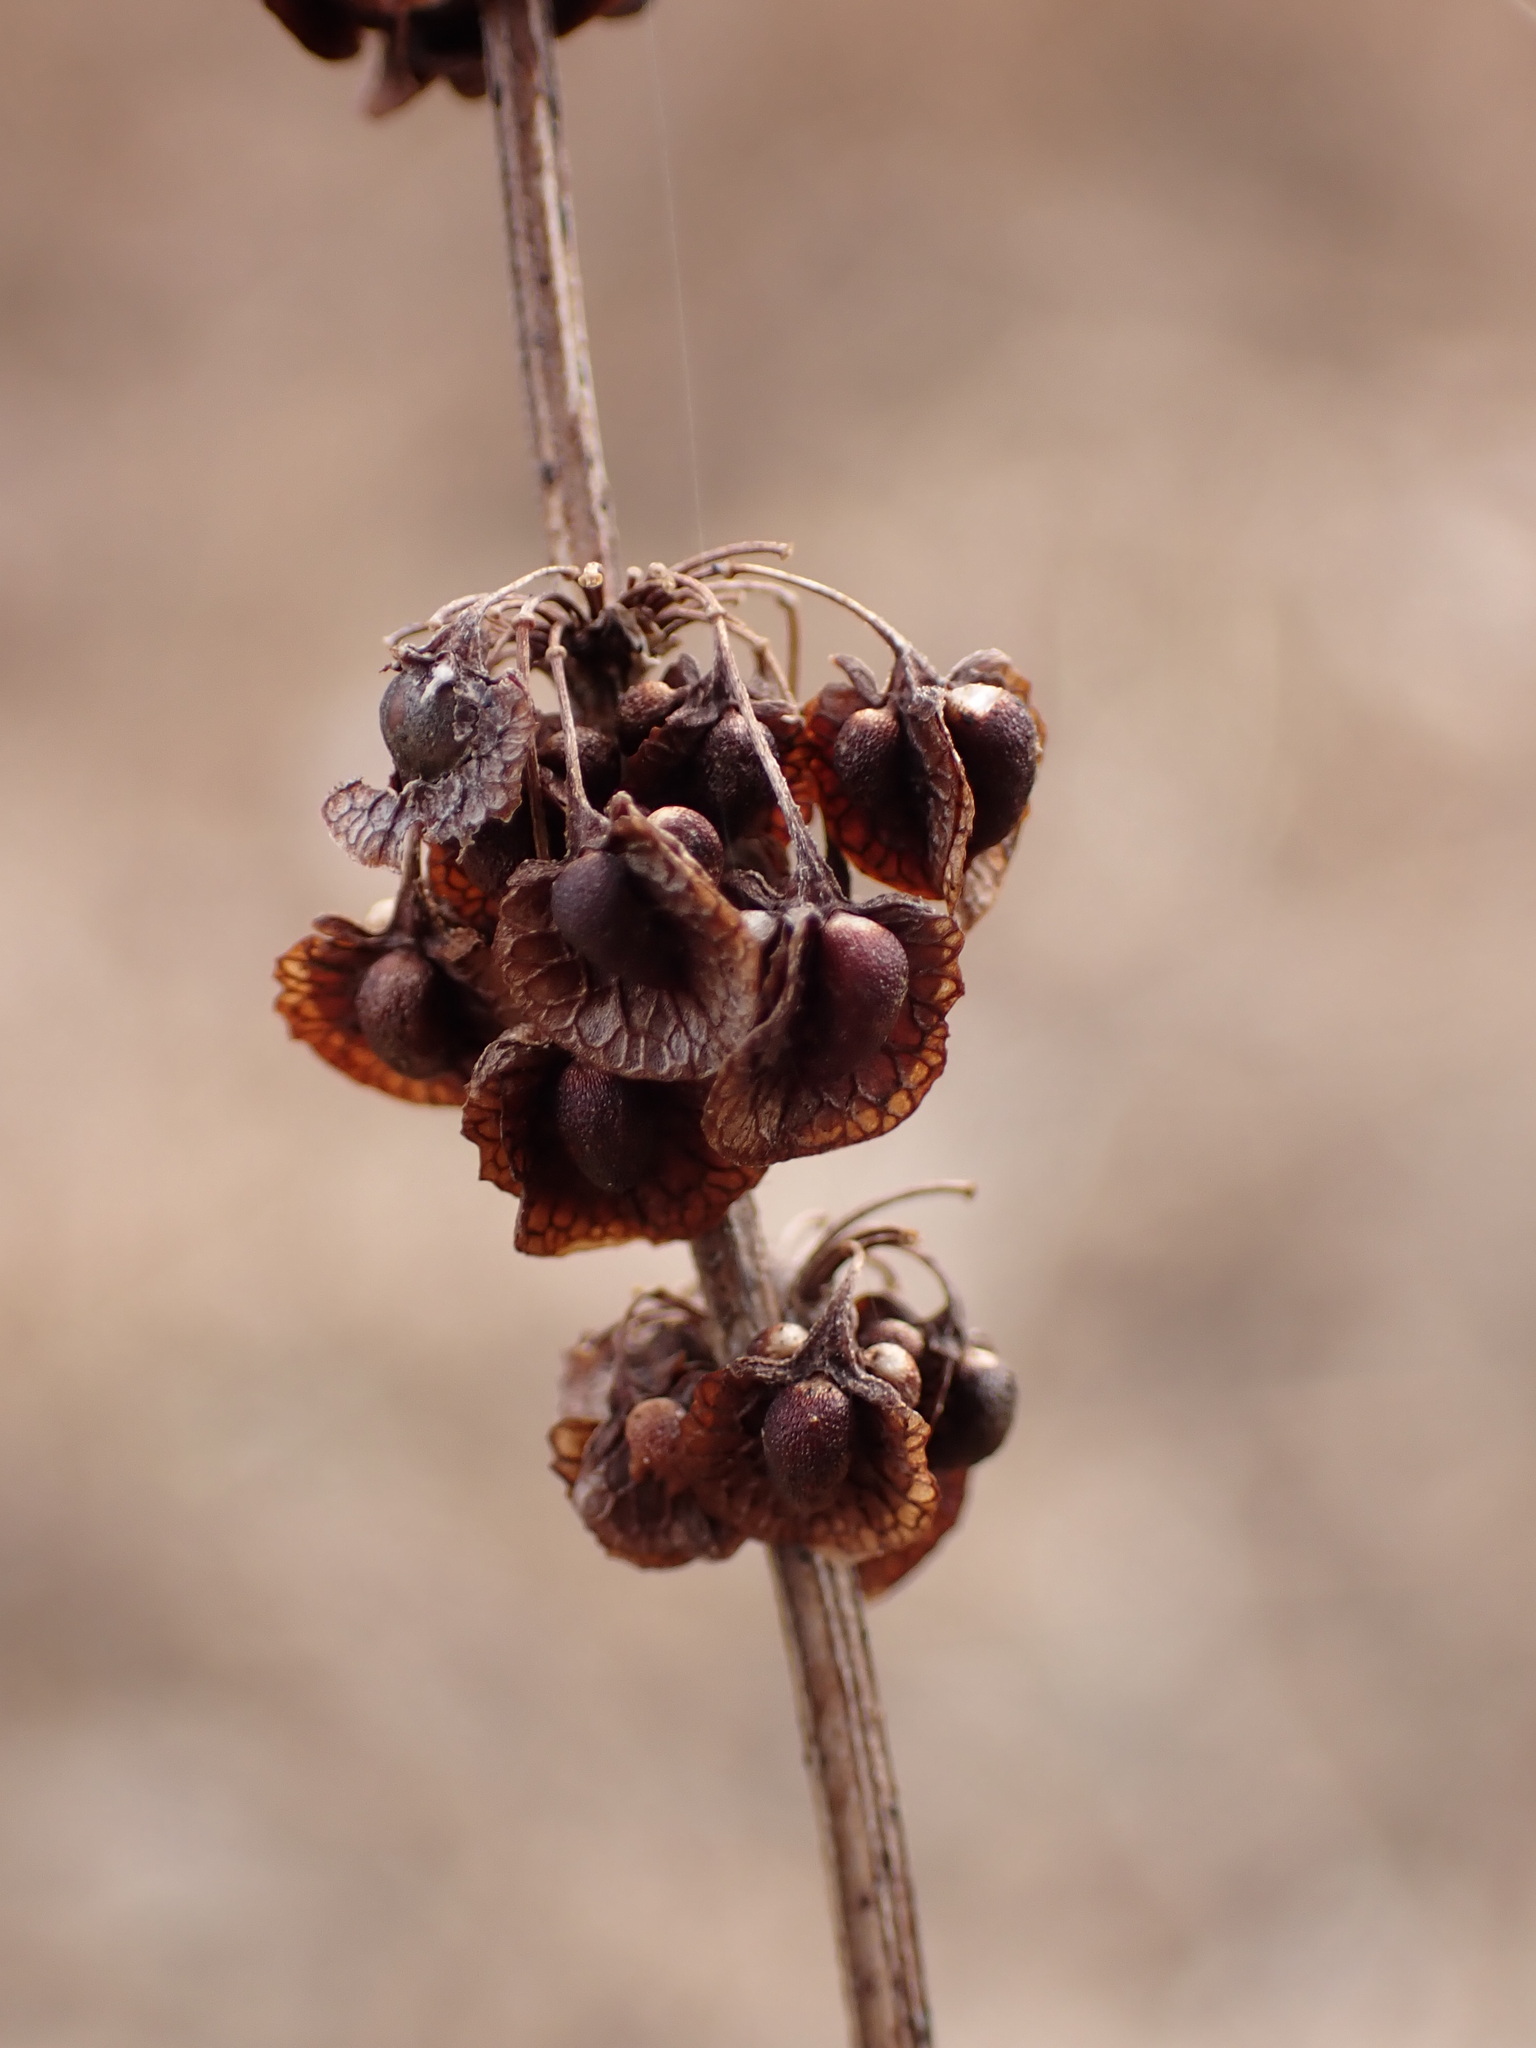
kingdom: Plantae
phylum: Tracheophyta
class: Magnoliopsida
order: Caryophyllales
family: Polygonaceae
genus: Rumex
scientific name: Rumex crispus
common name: Curled dock
